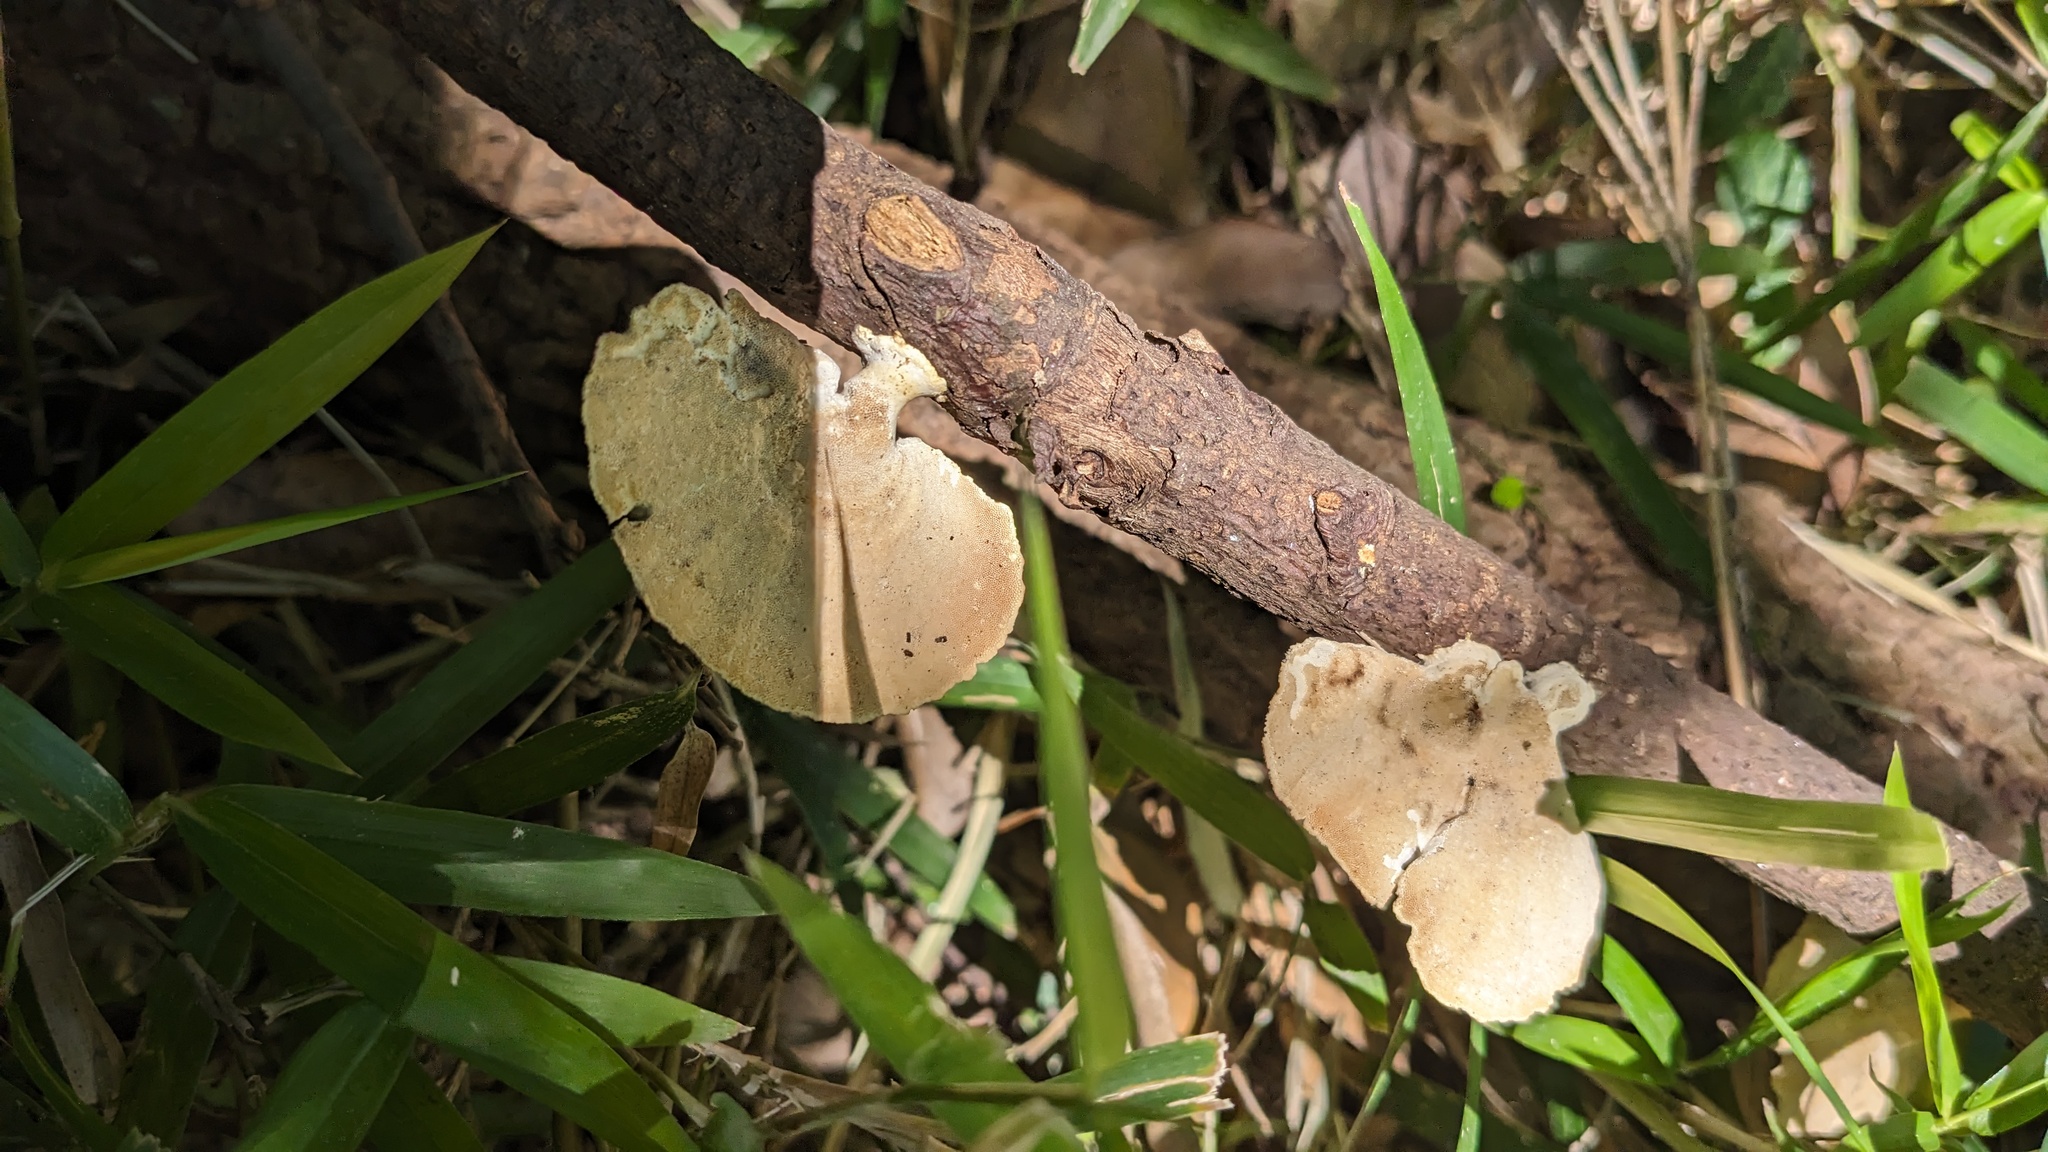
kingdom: Fungi
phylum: Basidiomycota
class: Agaricomycetes
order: Polyporales
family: Polyporaceae
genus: Trametes
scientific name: Trametes vernicipes
